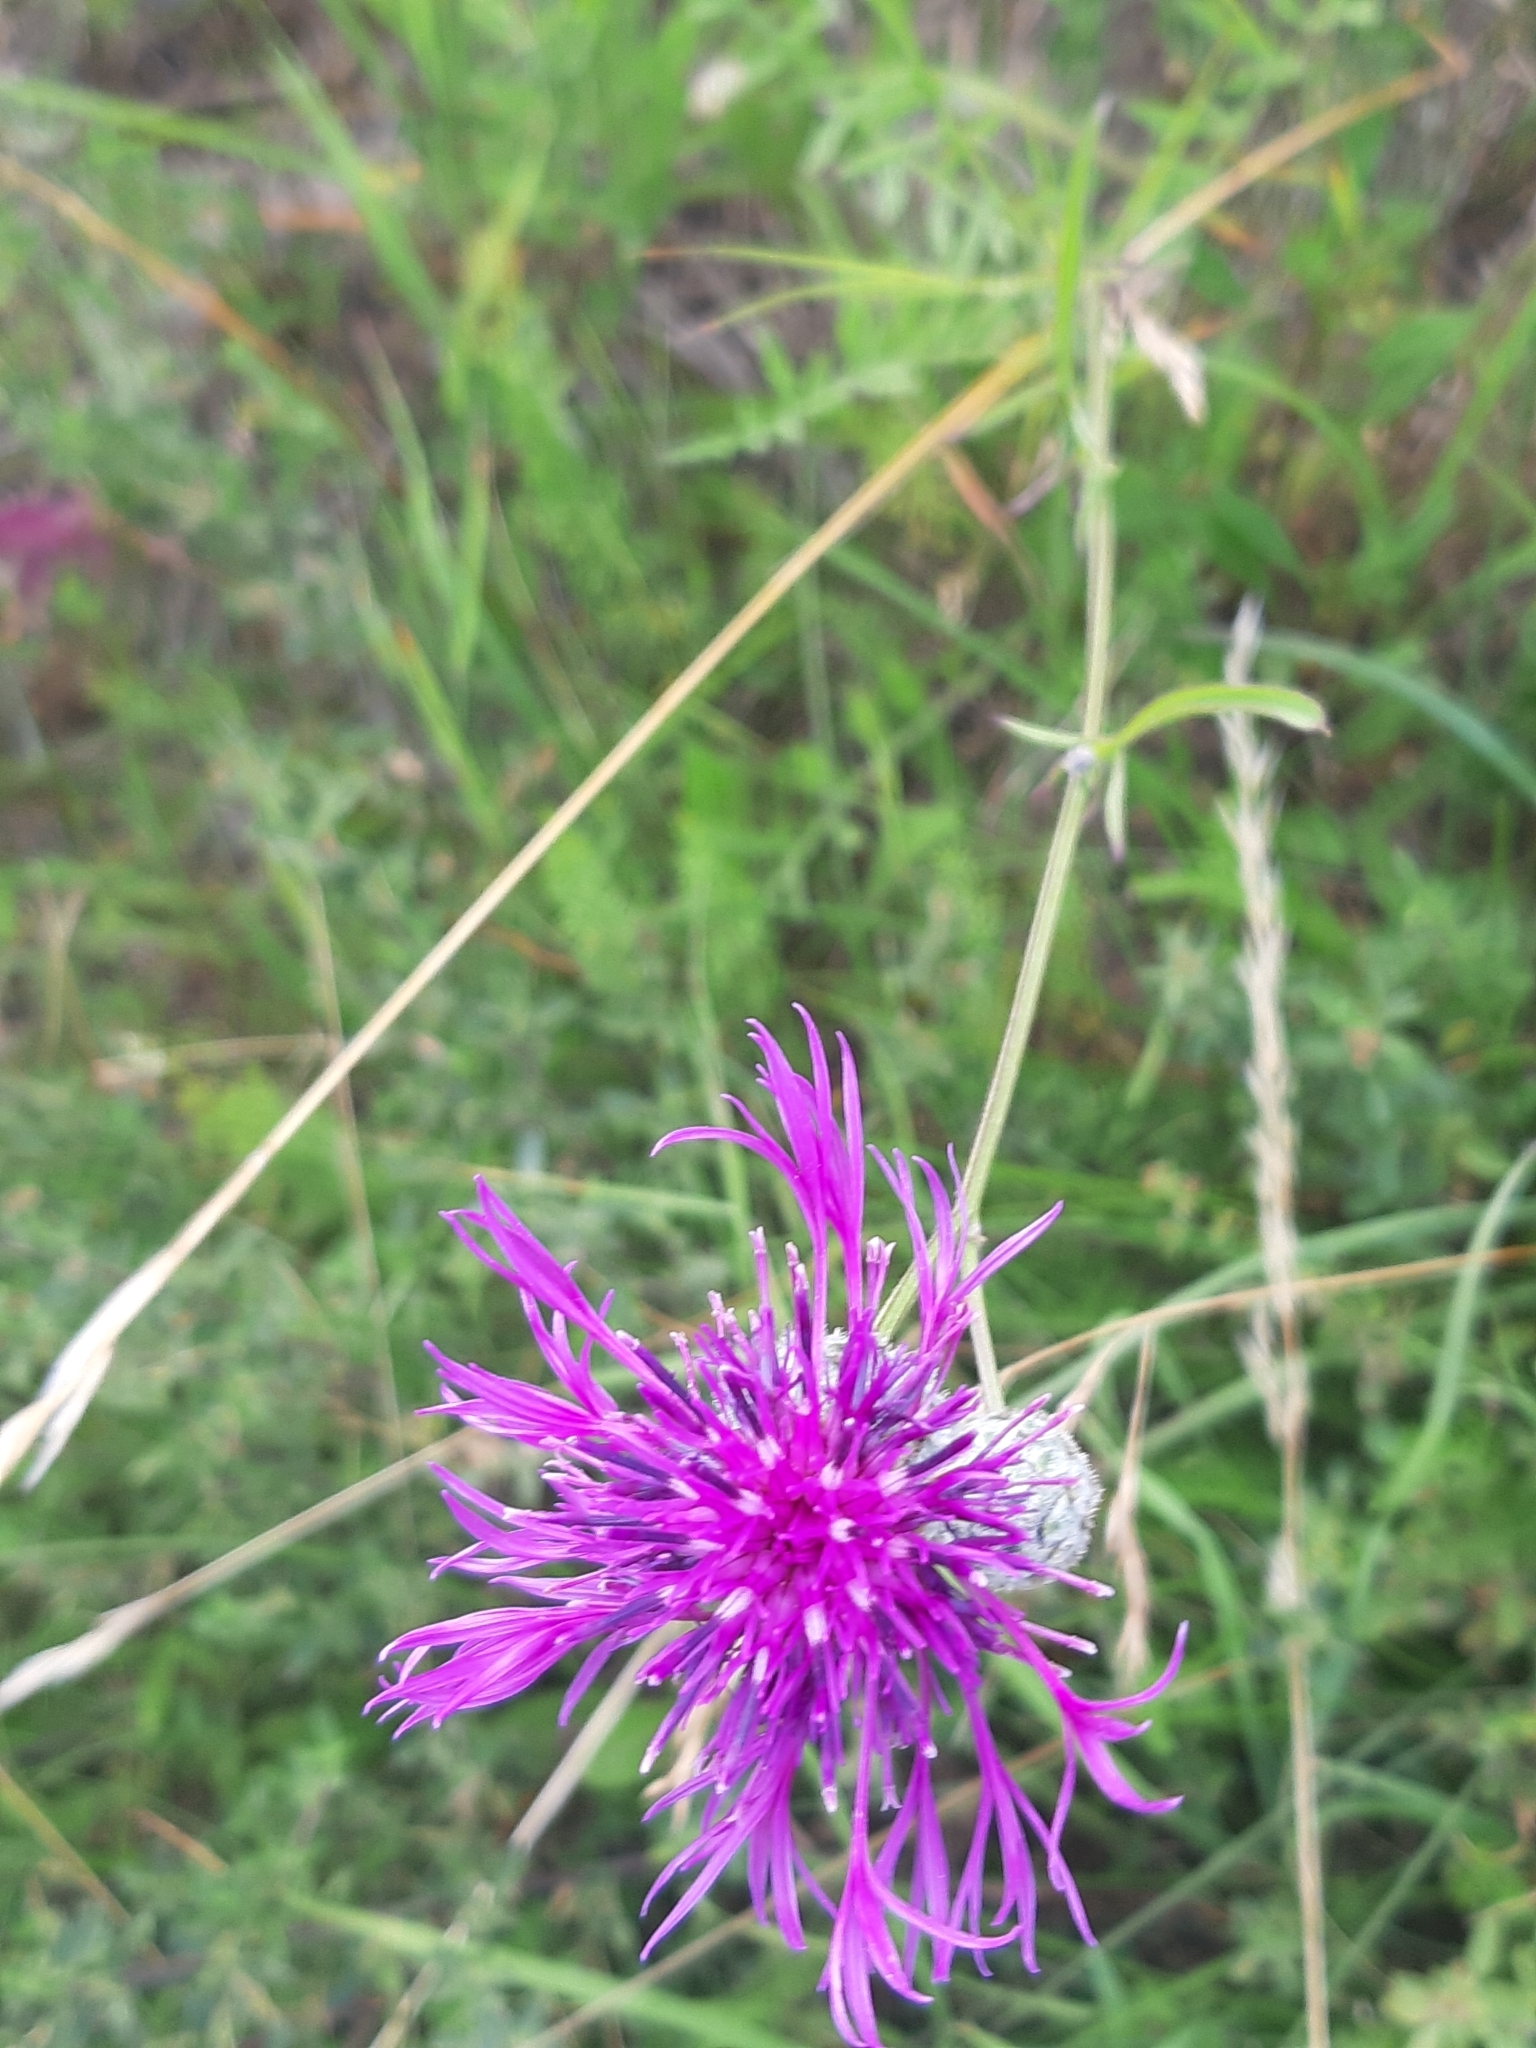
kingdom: Plantae
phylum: Tracheophyta
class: Magnoliopsida
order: Asterales
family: Asteraceae
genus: Centaurea
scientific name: Centaurea scabiosa
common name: Greater knapweed
